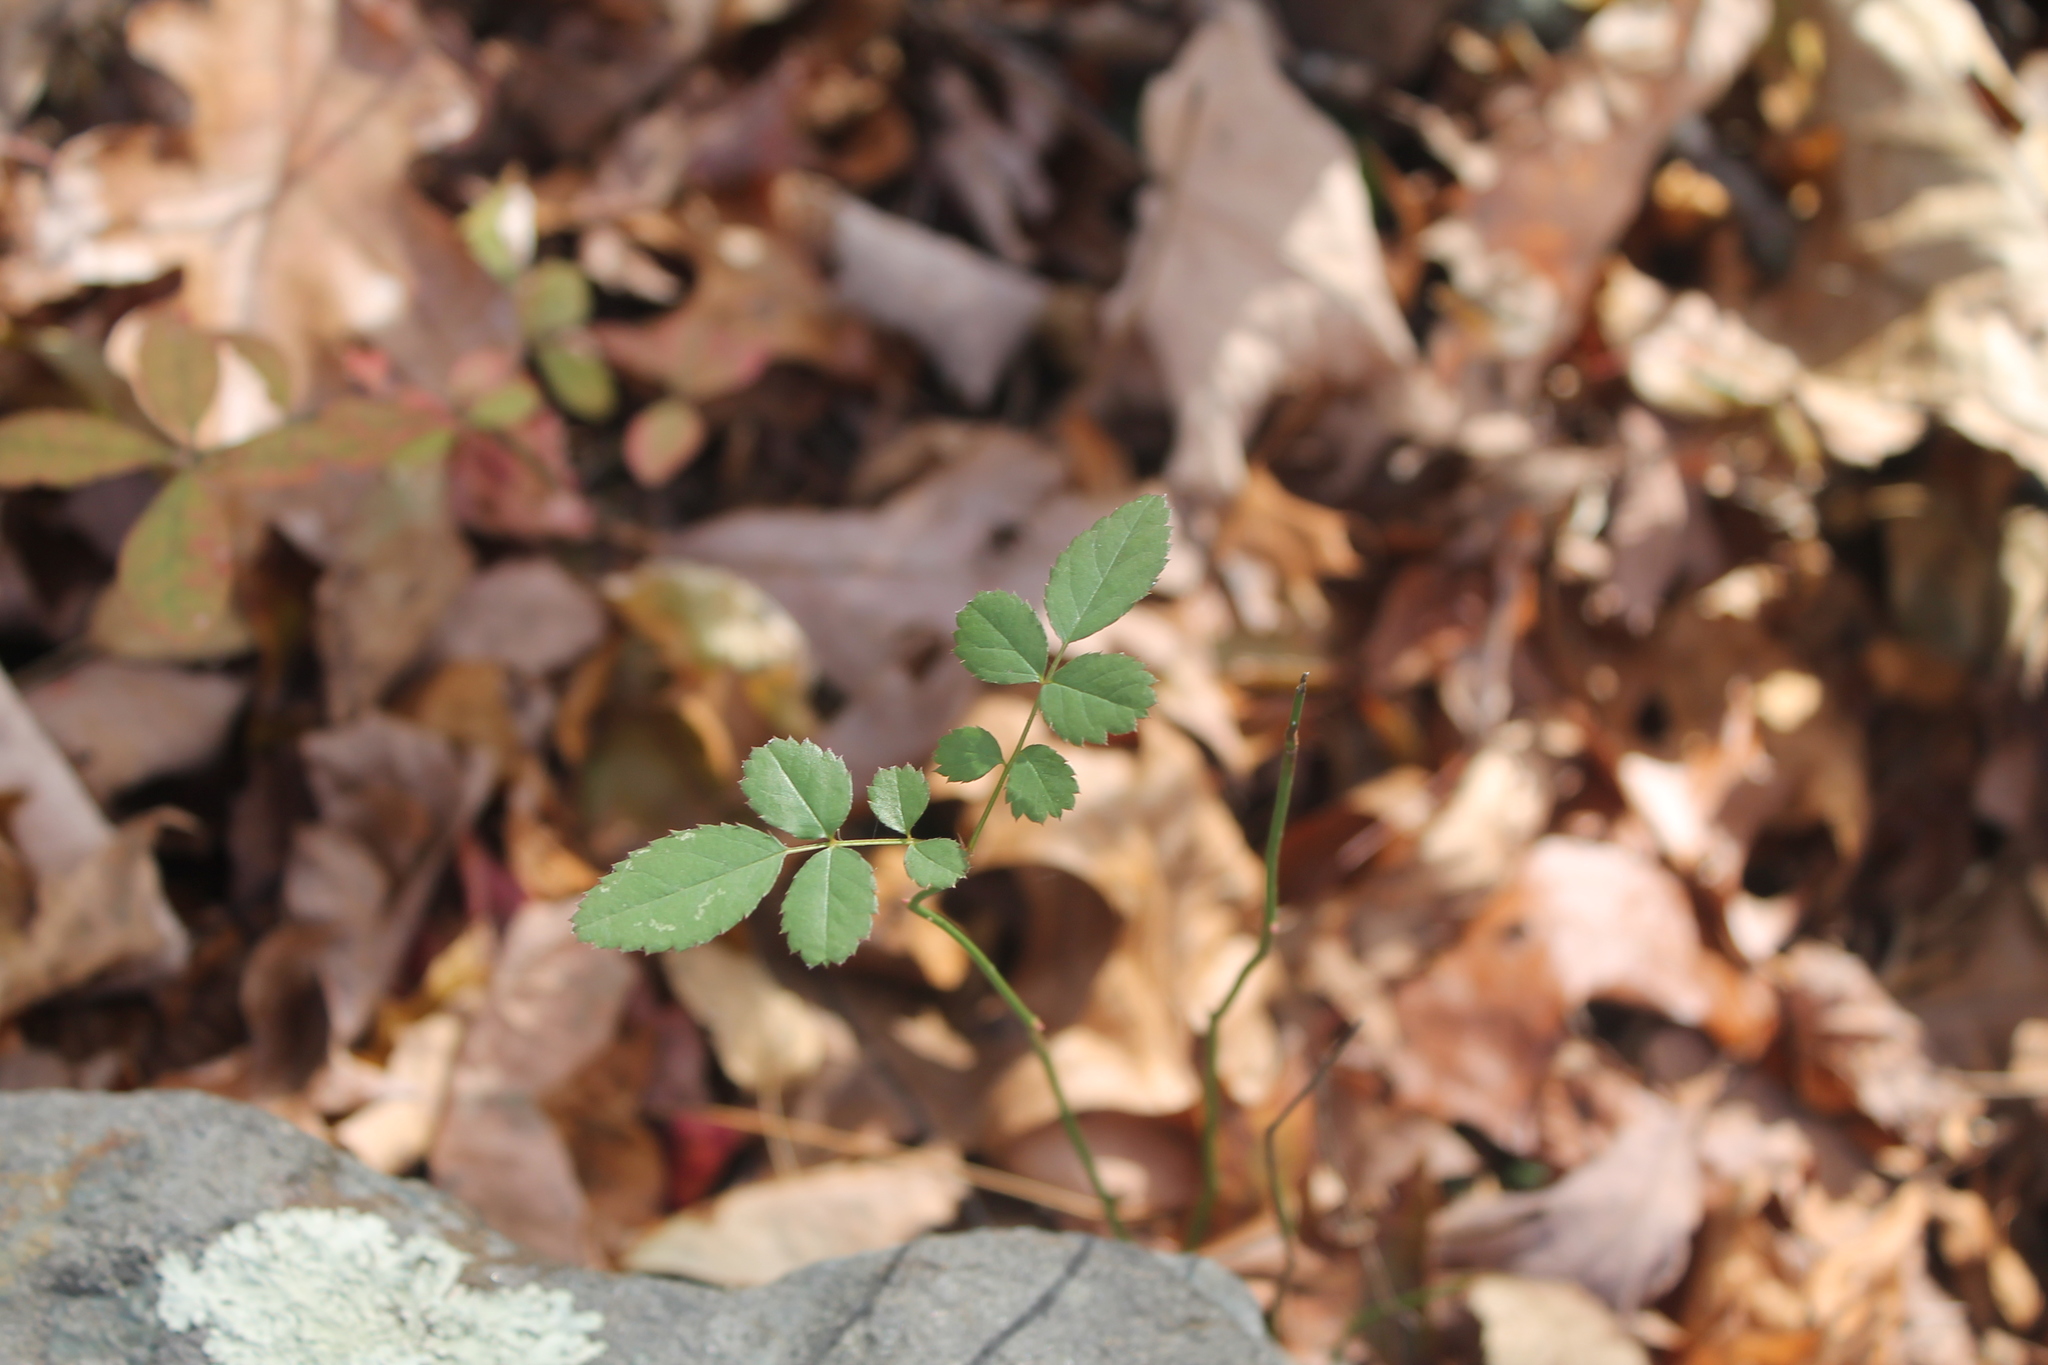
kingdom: Plantae
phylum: Tracheophyta
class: Magnoliopsida
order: Rosales
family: Rosaceae
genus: Rosa
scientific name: Rosa multiflora
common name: Multiflora rose
